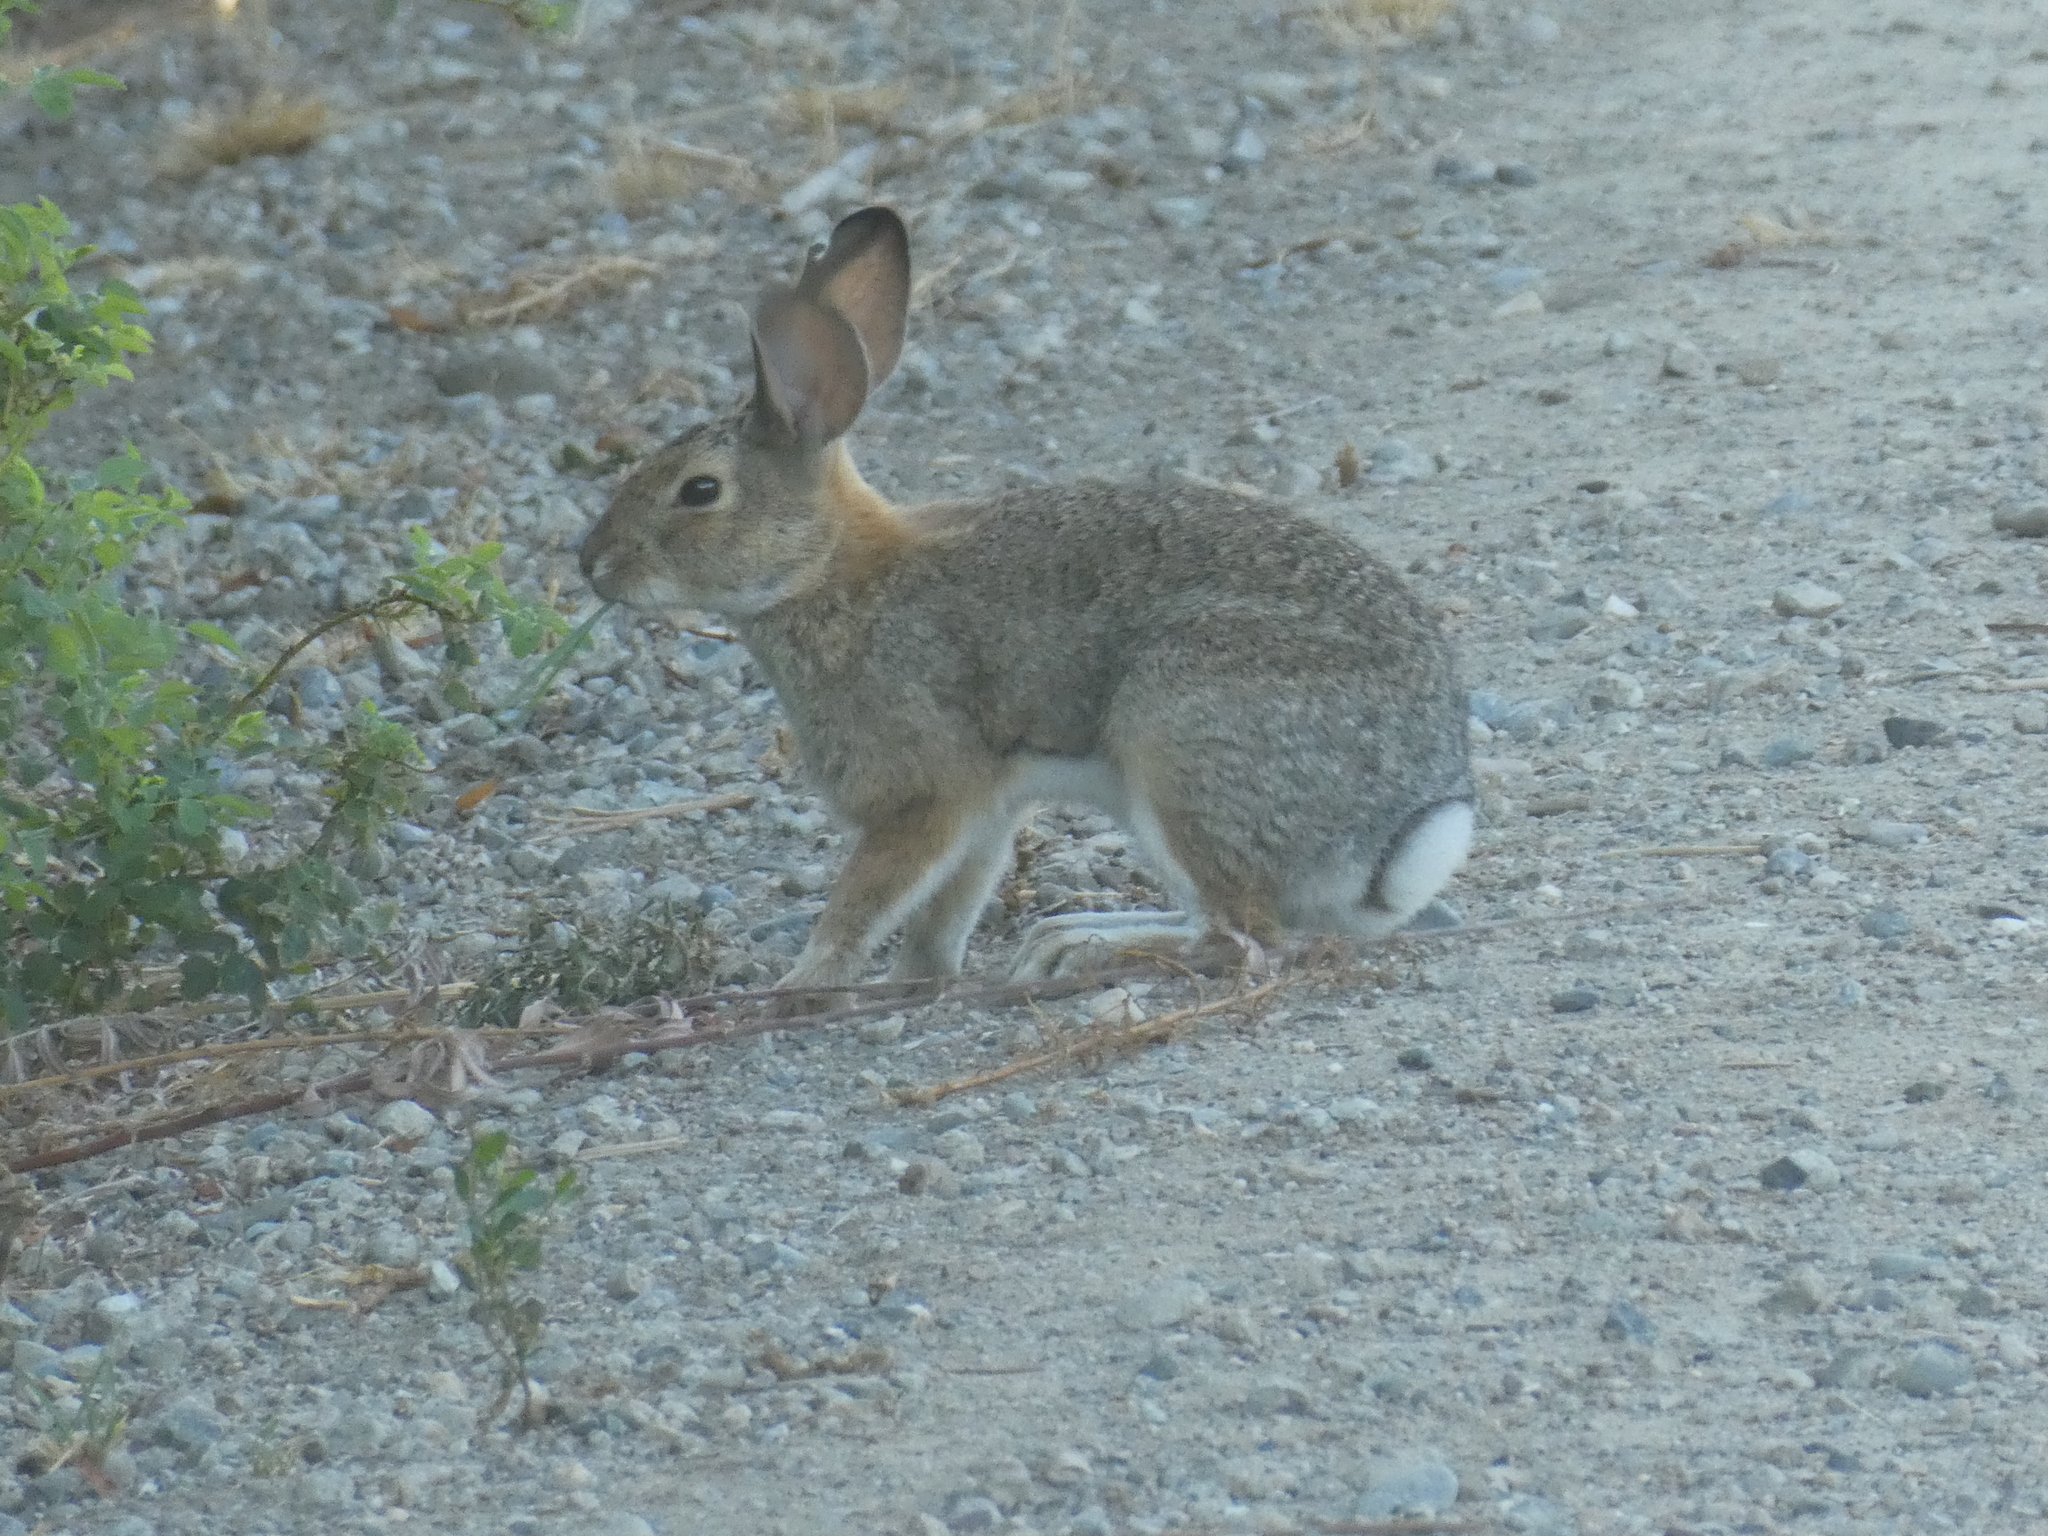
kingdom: Animalia
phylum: Chordata
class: Mammalia
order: Lagomorpha
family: Leporidae
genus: Sylvilagus
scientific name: Sylvilagus audubonii
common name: Desert cottontail
